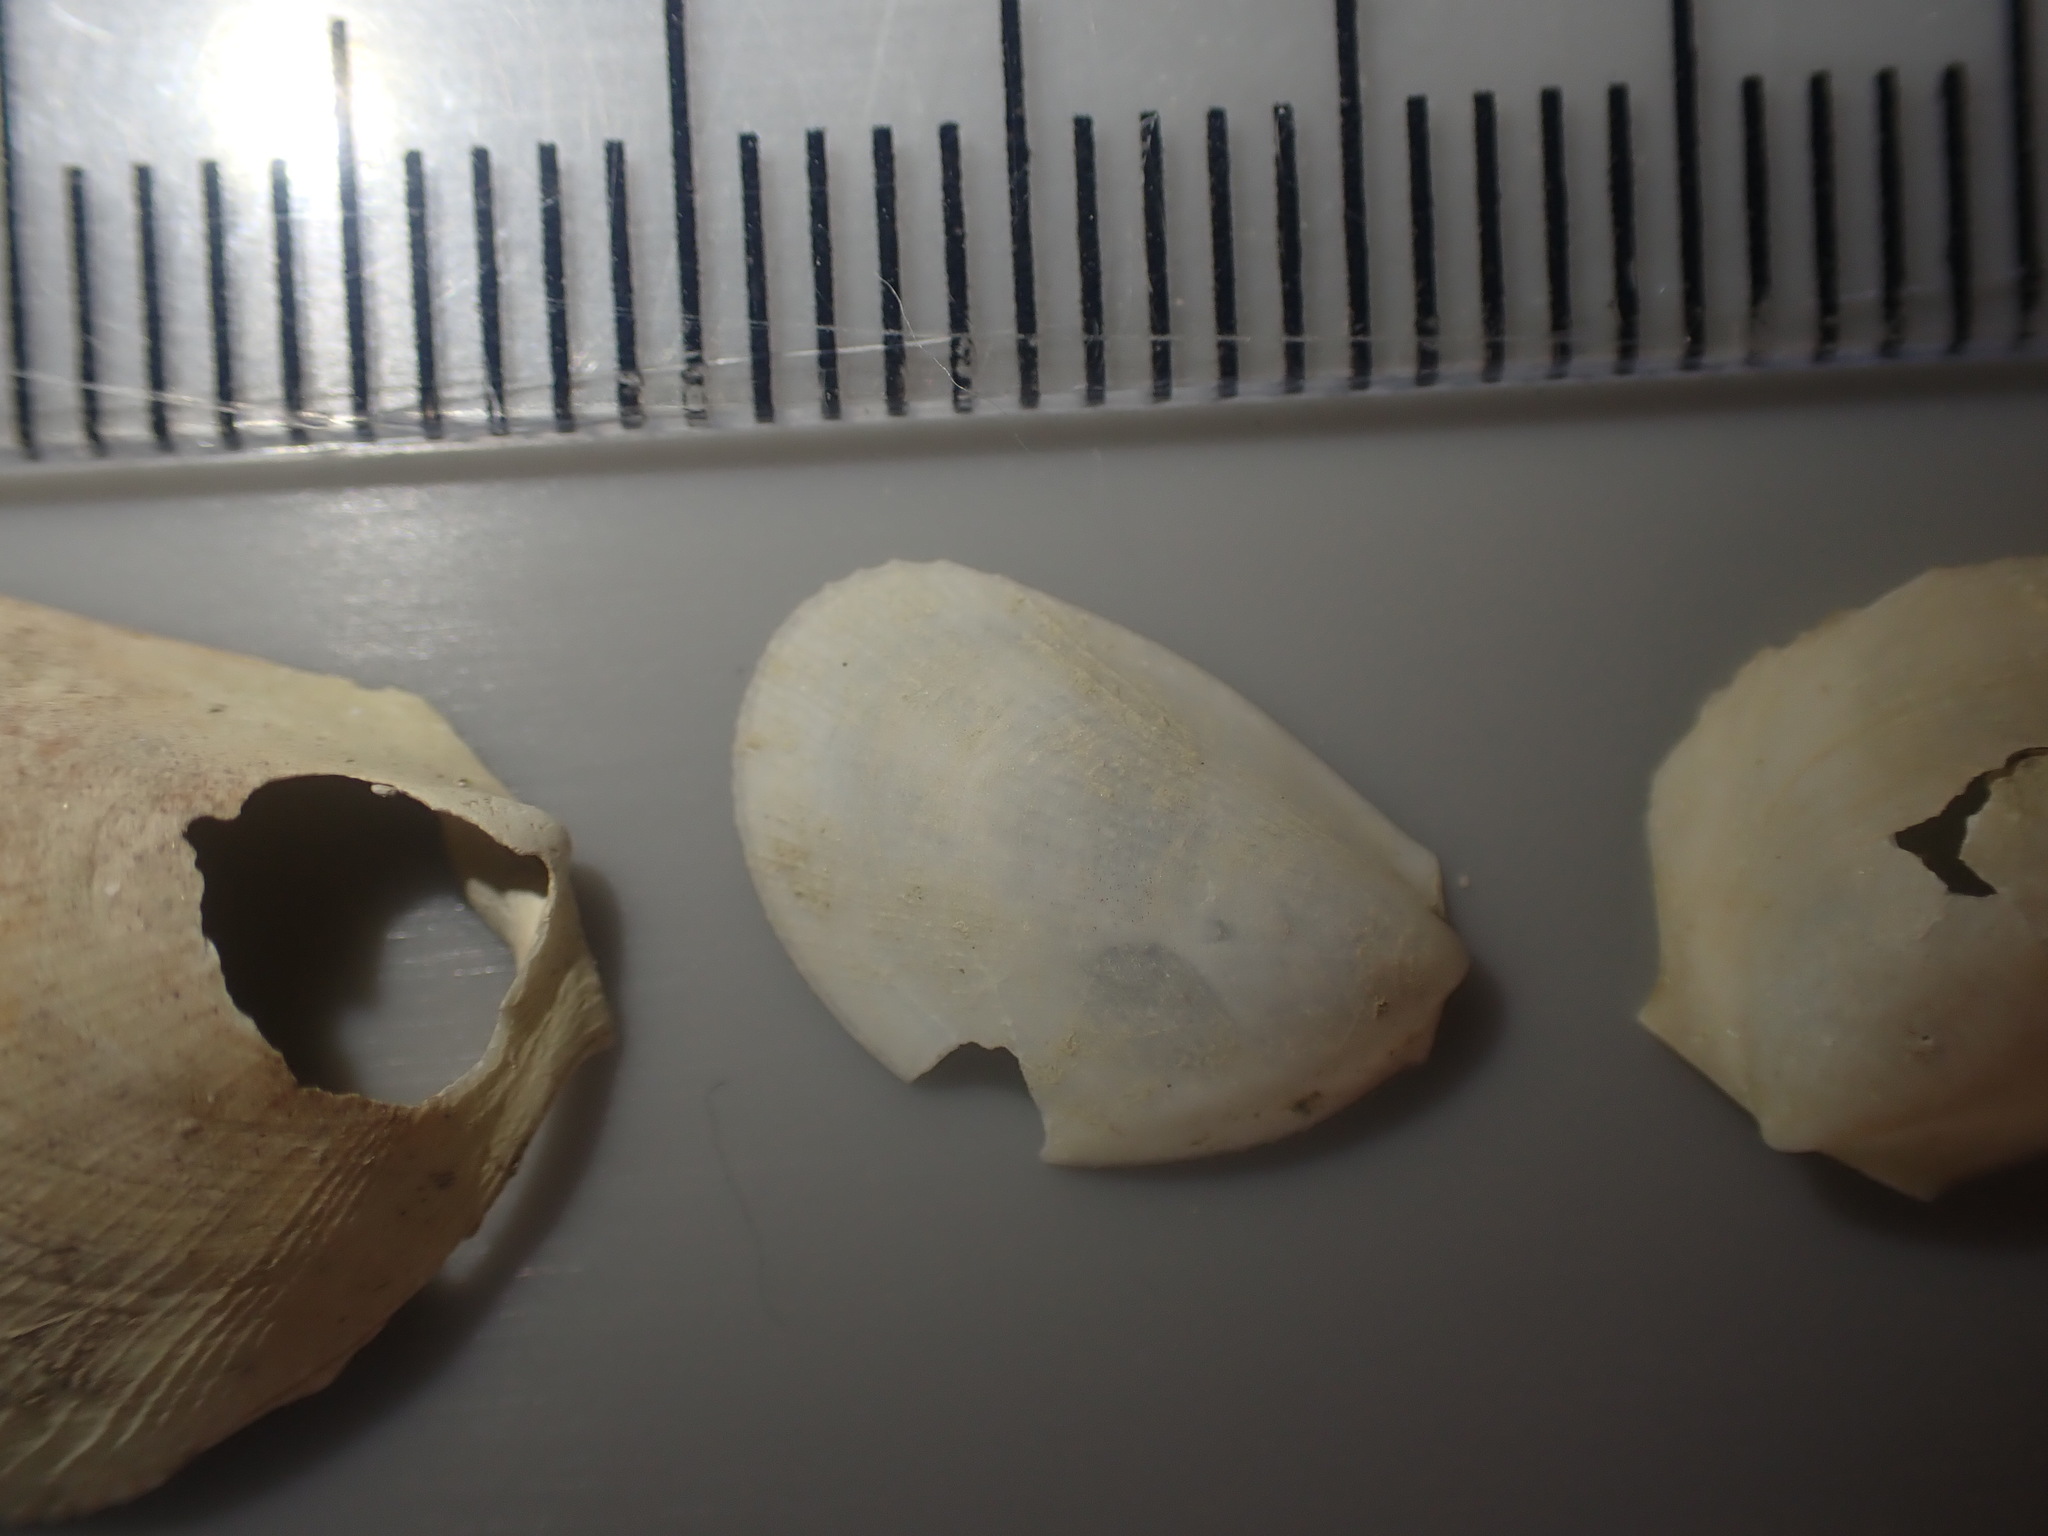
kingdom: Animalia
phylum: Mollusca
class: Bivalvia
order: Limida
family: Limidae
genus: Limaria
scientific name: Limaria orientalis
